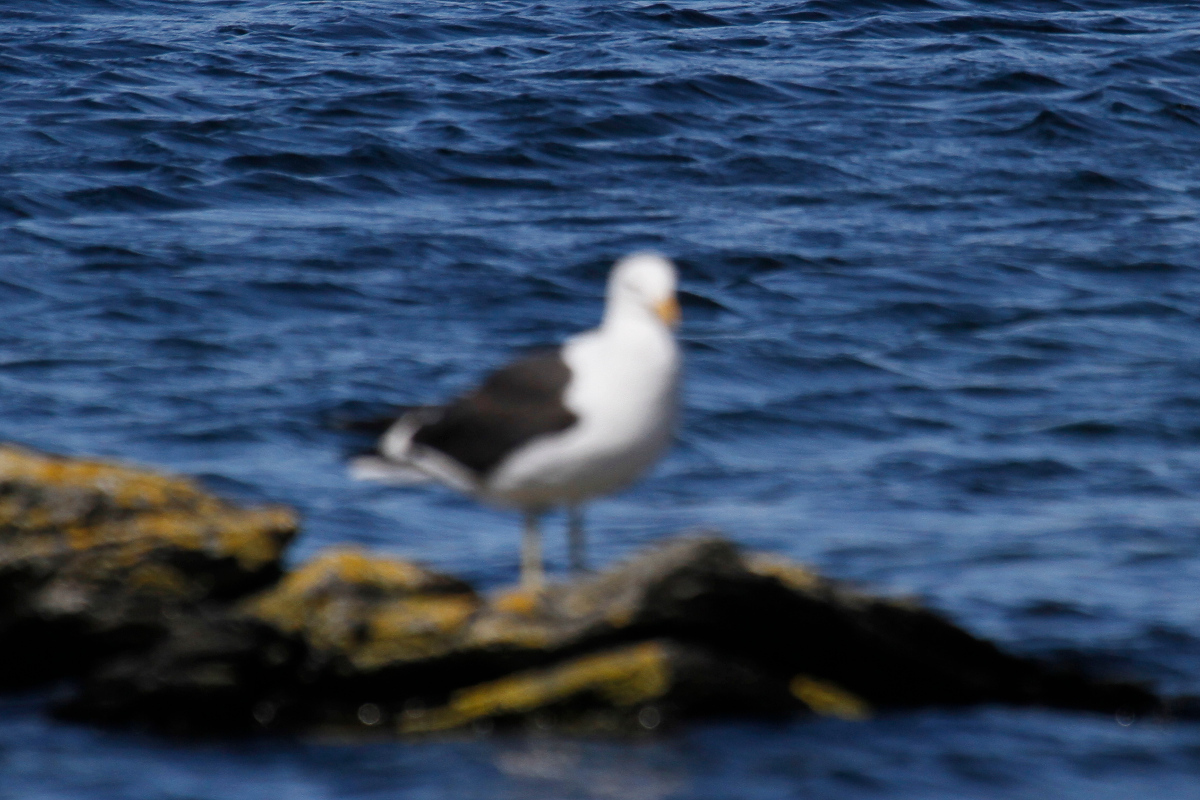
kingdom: Animalia
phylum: Chordata
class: Aves
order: Charadriiformes
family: Laridae
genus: Larus
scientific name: Larus dominicanus
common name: Kelp gull
